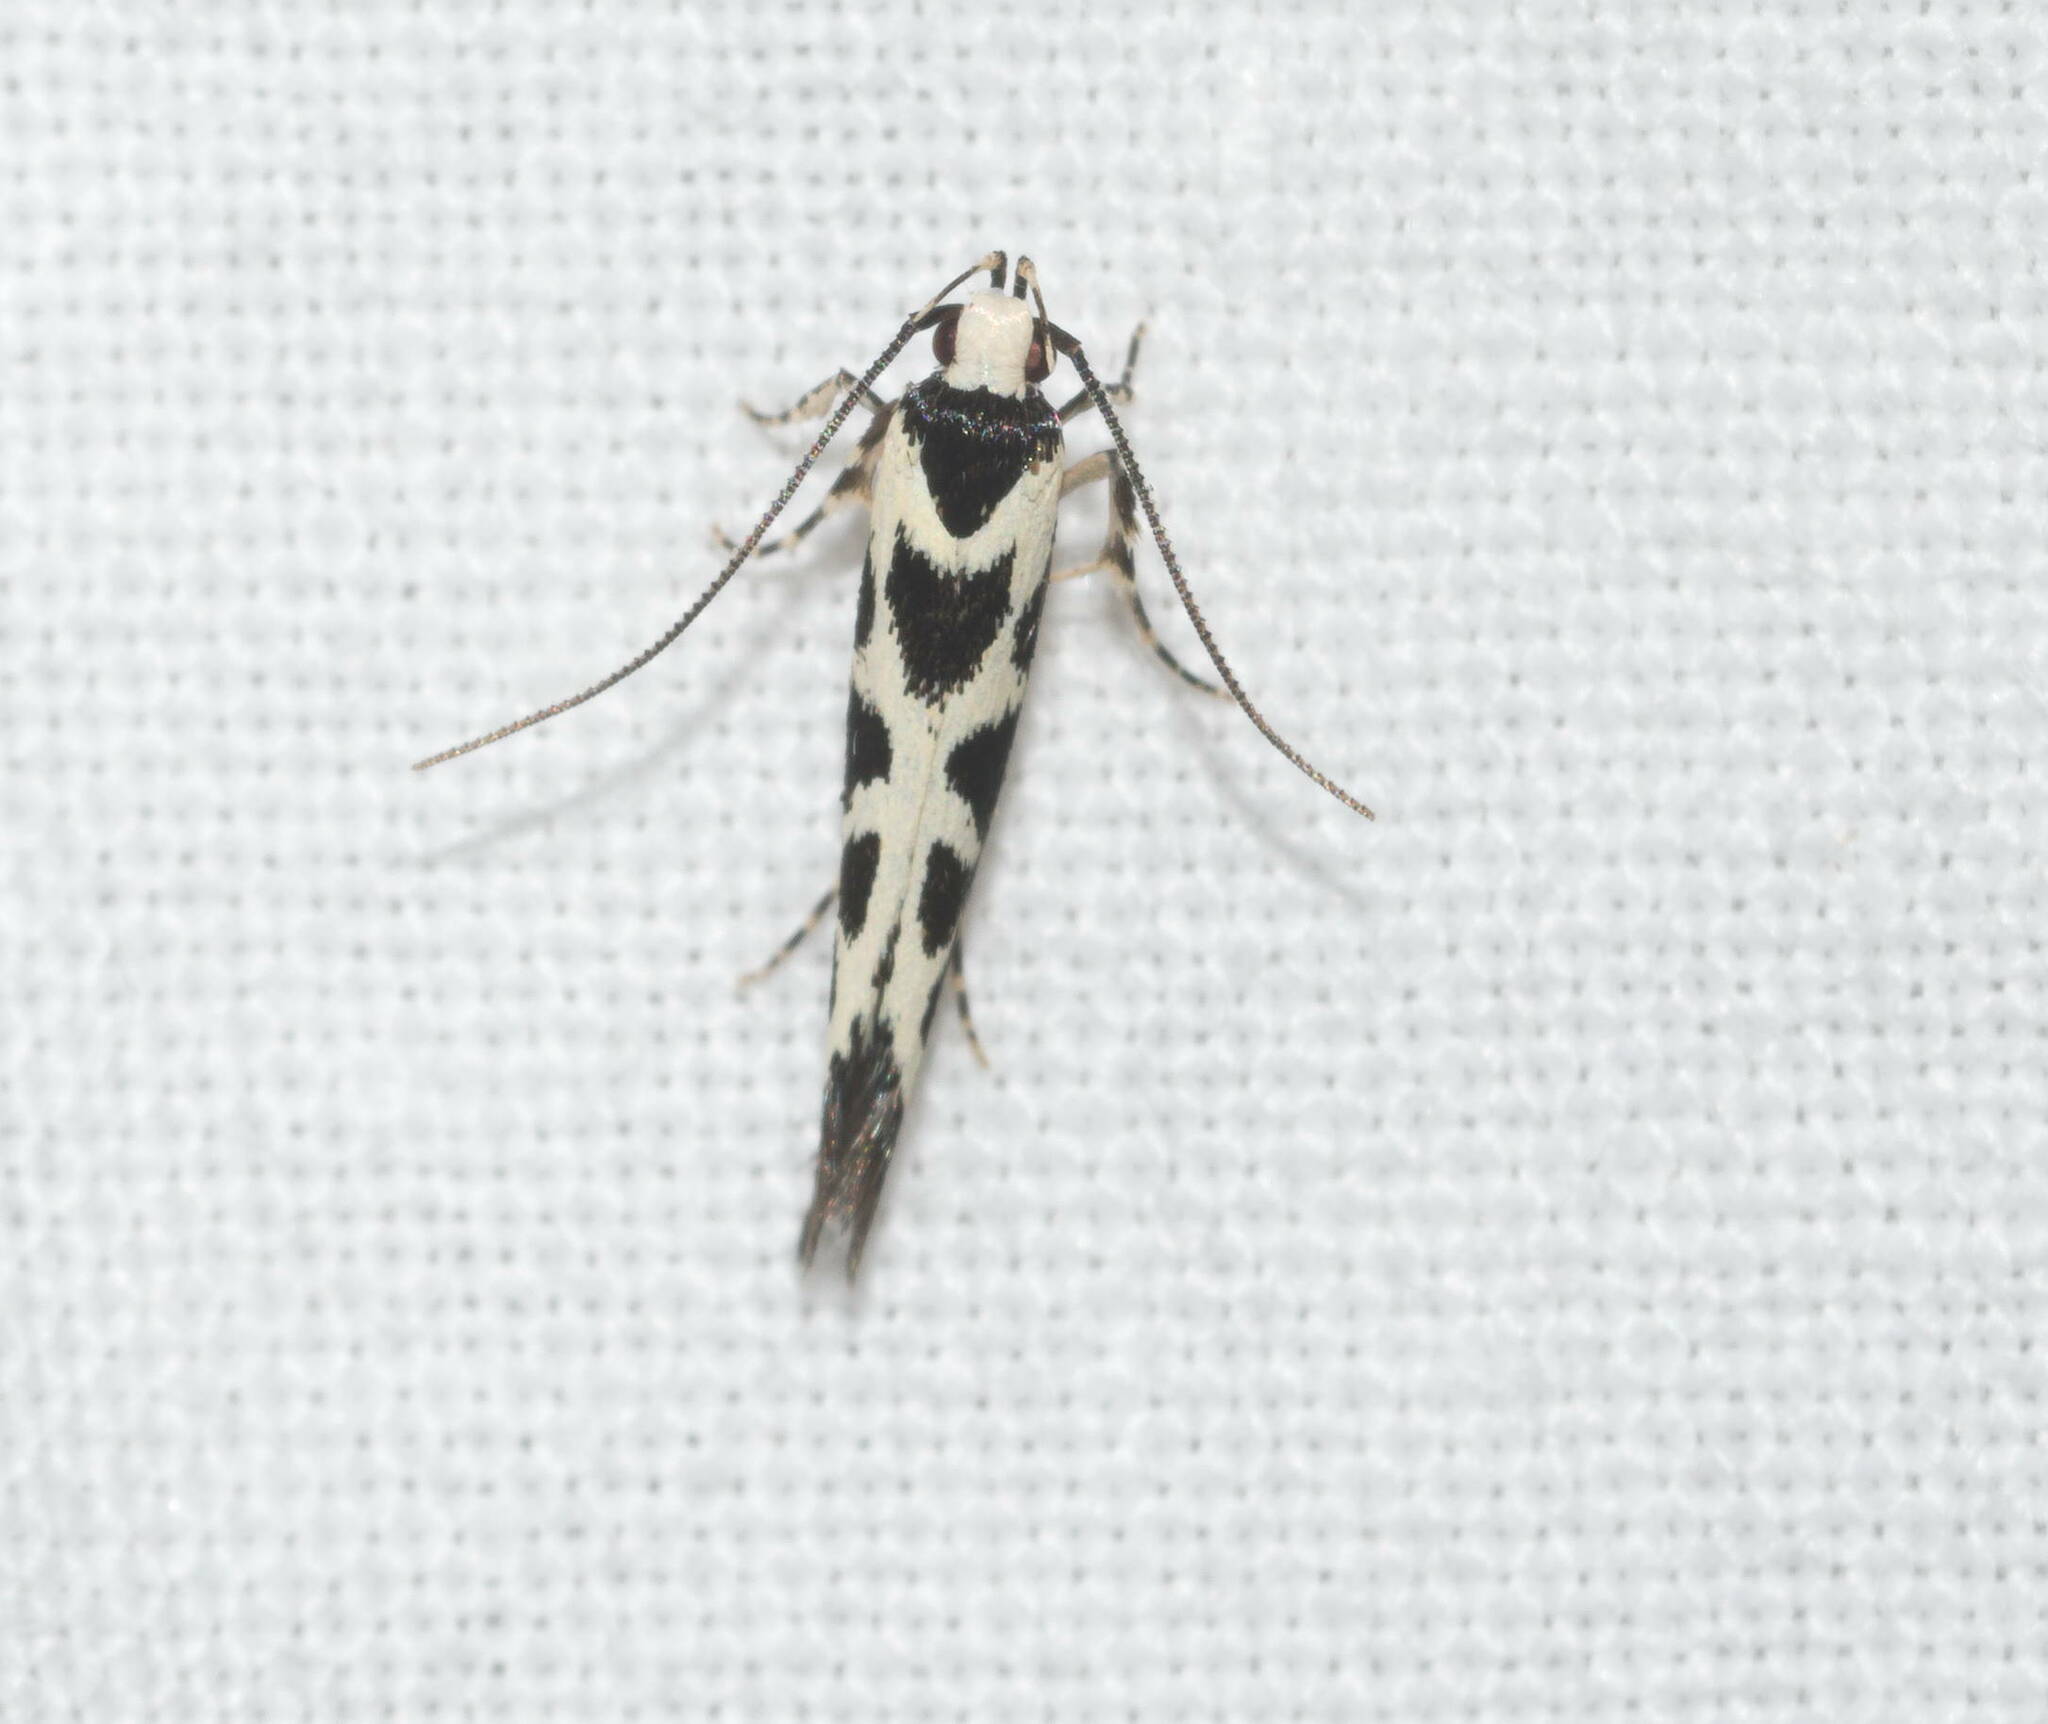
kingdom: Animalia
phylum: Arthropoda
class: Insecta
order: Lepidoptera
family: Cosmopterigidae
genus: Hyposmochoma
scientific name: Hyposmochoma exornata
